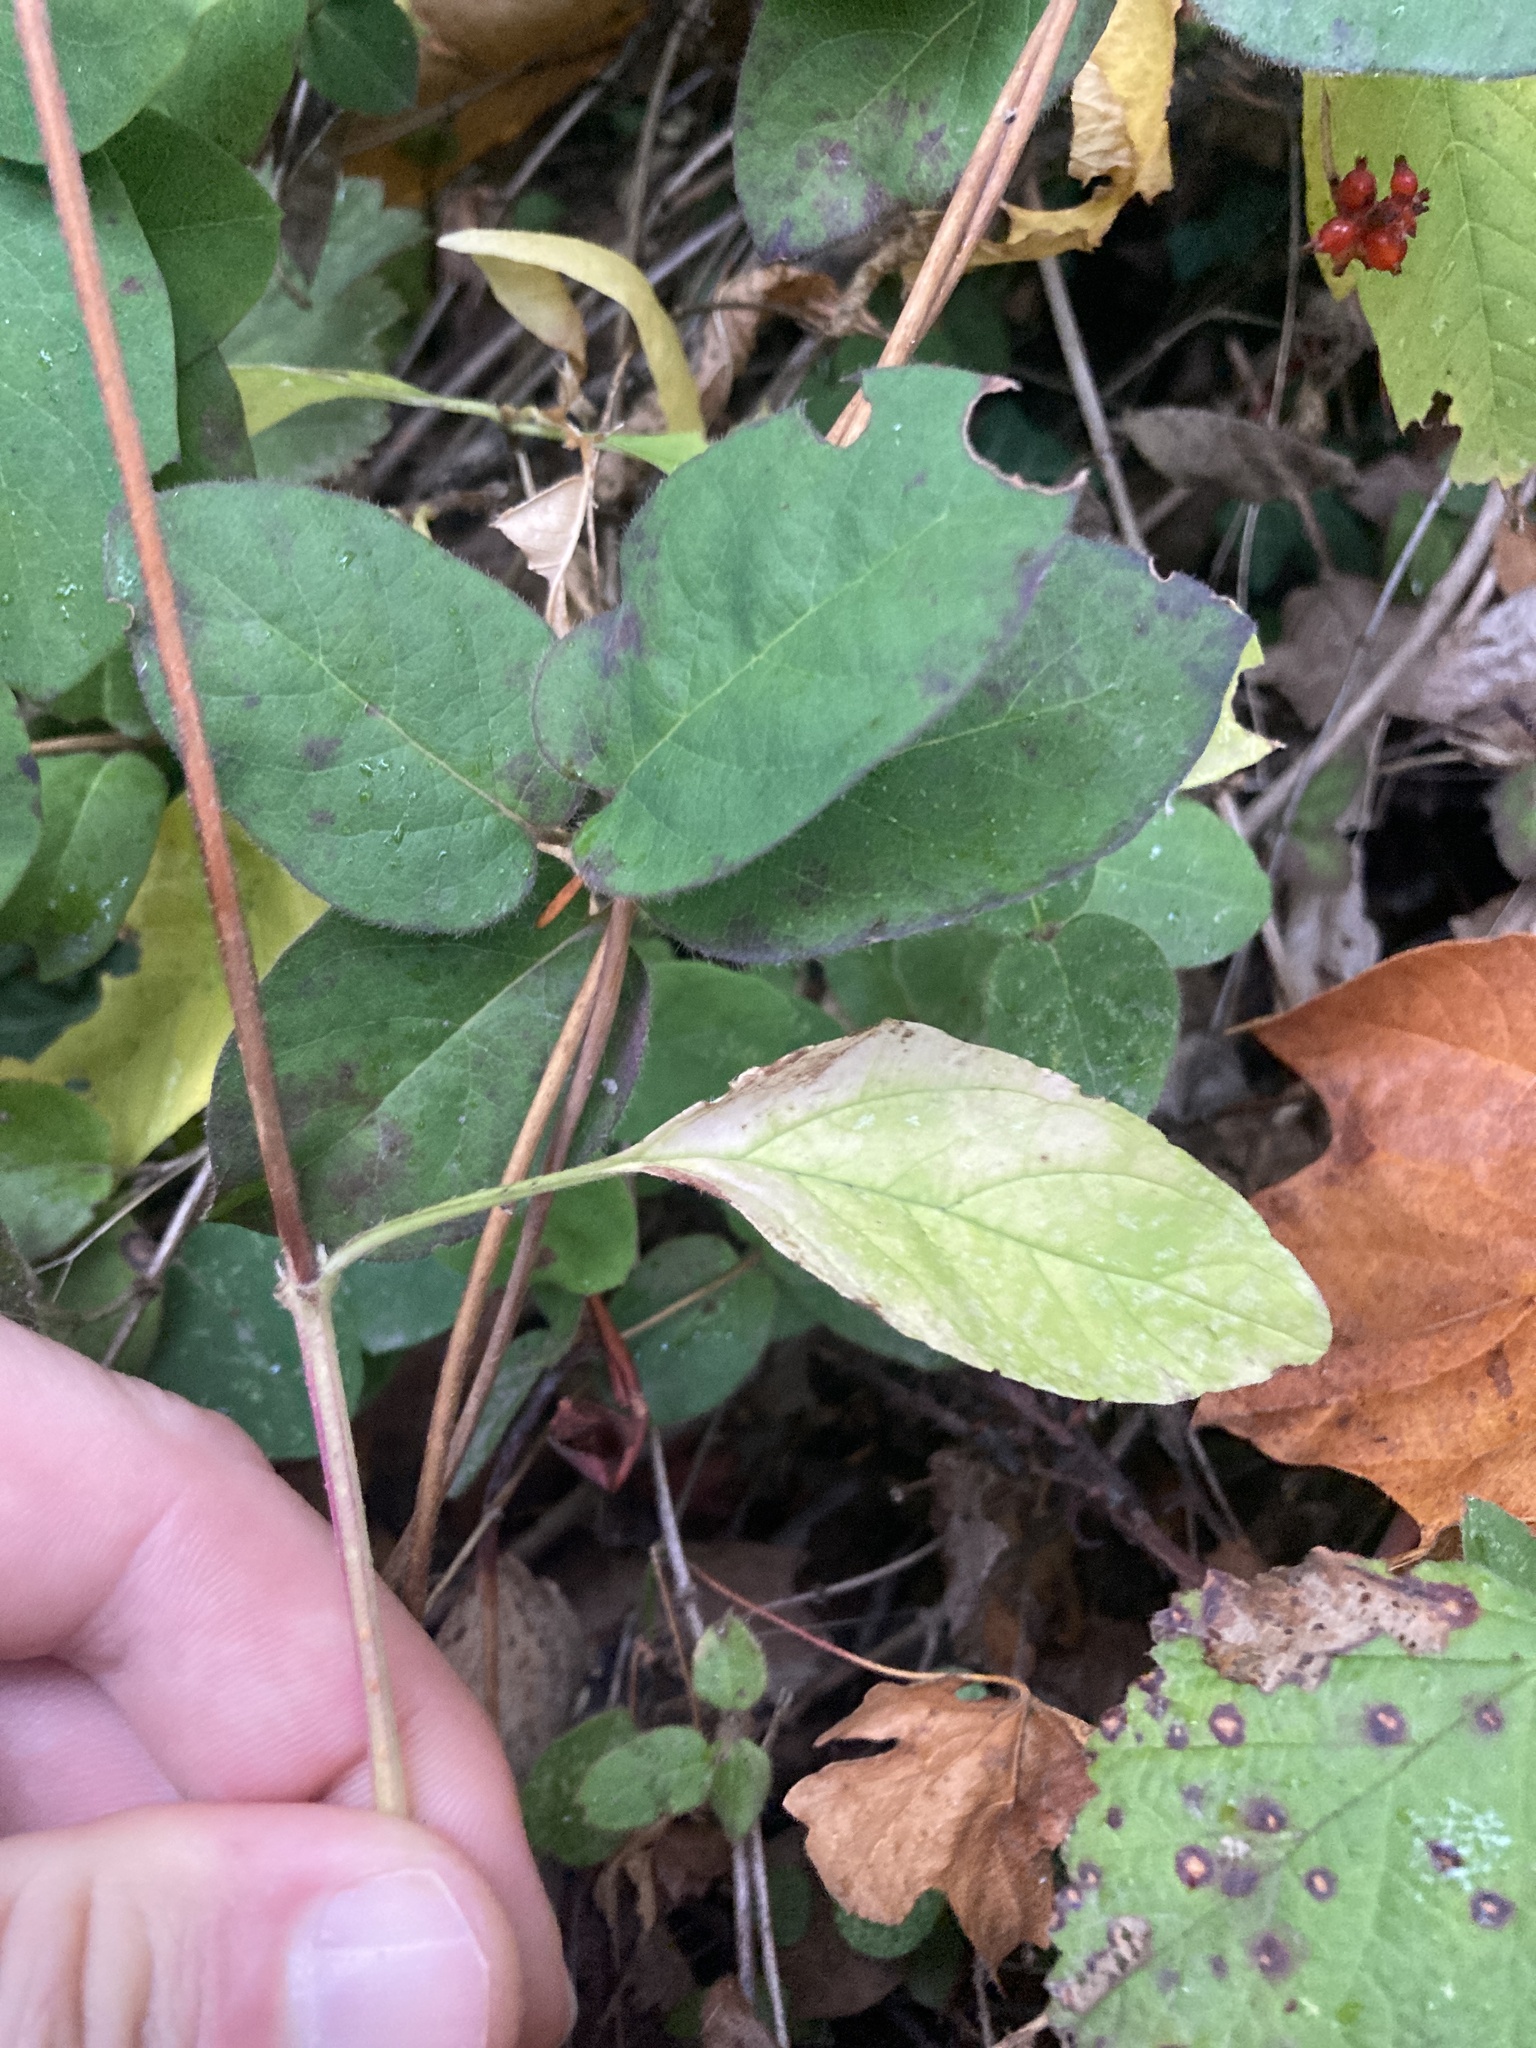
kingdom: Plantae
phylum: Tracheophyta
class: Magnoliopsida
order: Lamiales
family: Lamiaceae
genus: Prunella
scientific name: Prunella vulgaris
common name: Heal-all
